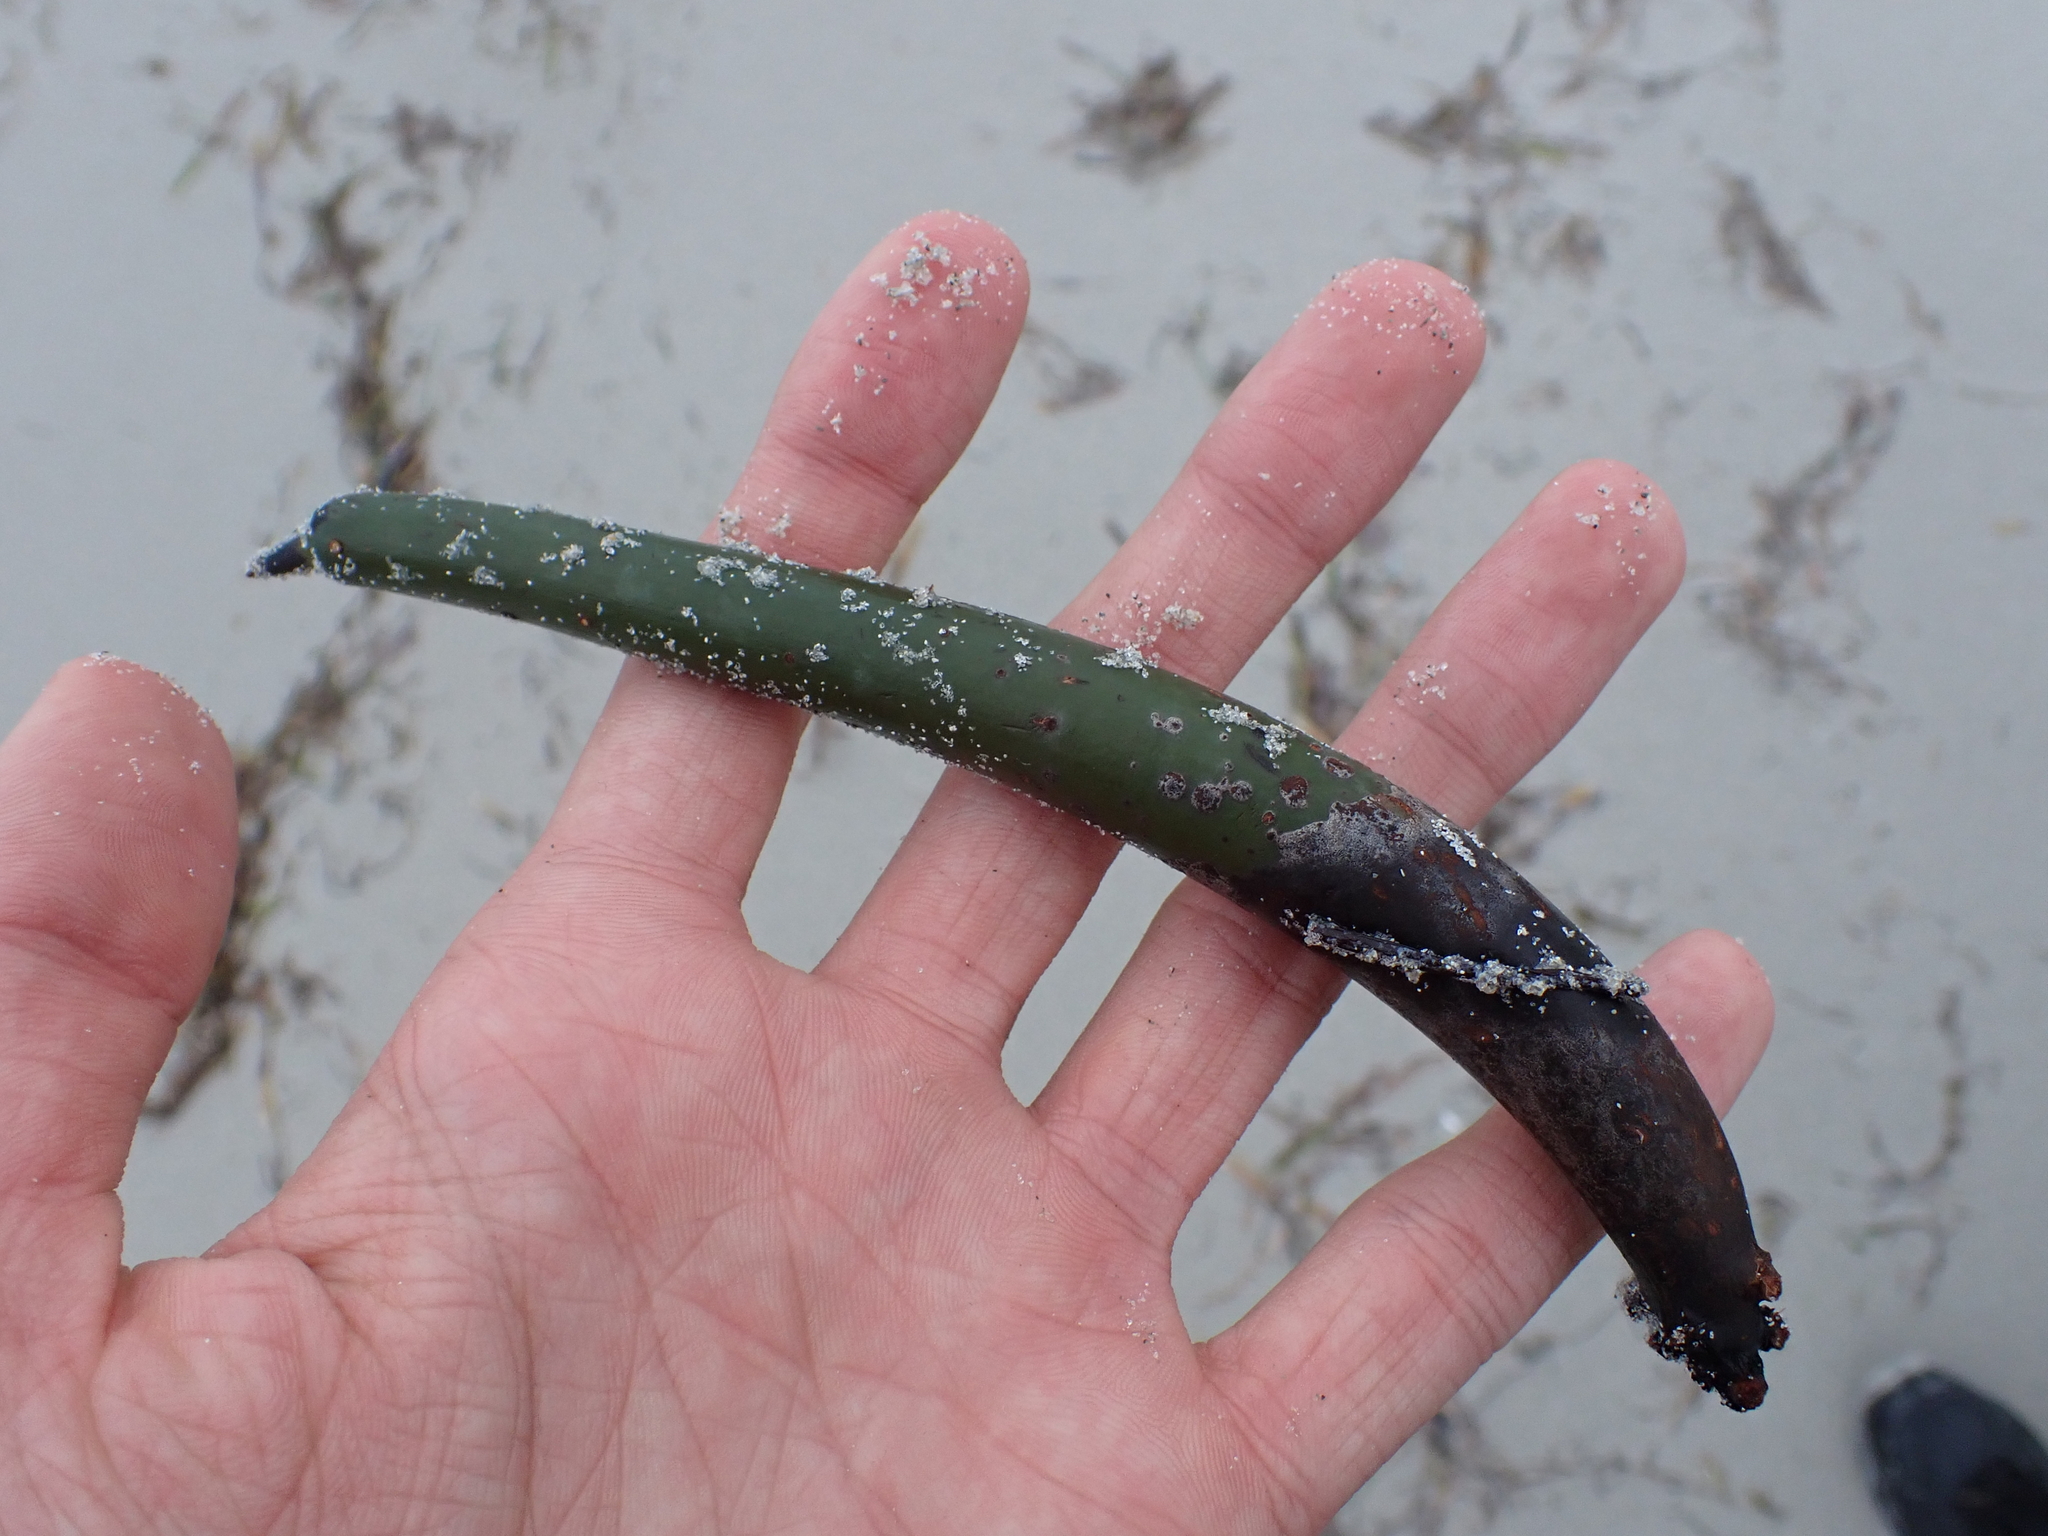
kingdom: Plantae
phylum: Tracheophyta
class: Magnoliopsida
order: Malpighiales
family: Rhizophoraceae
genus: Rhizophora
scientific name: Rhizophora mangle
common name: Red mangrove
